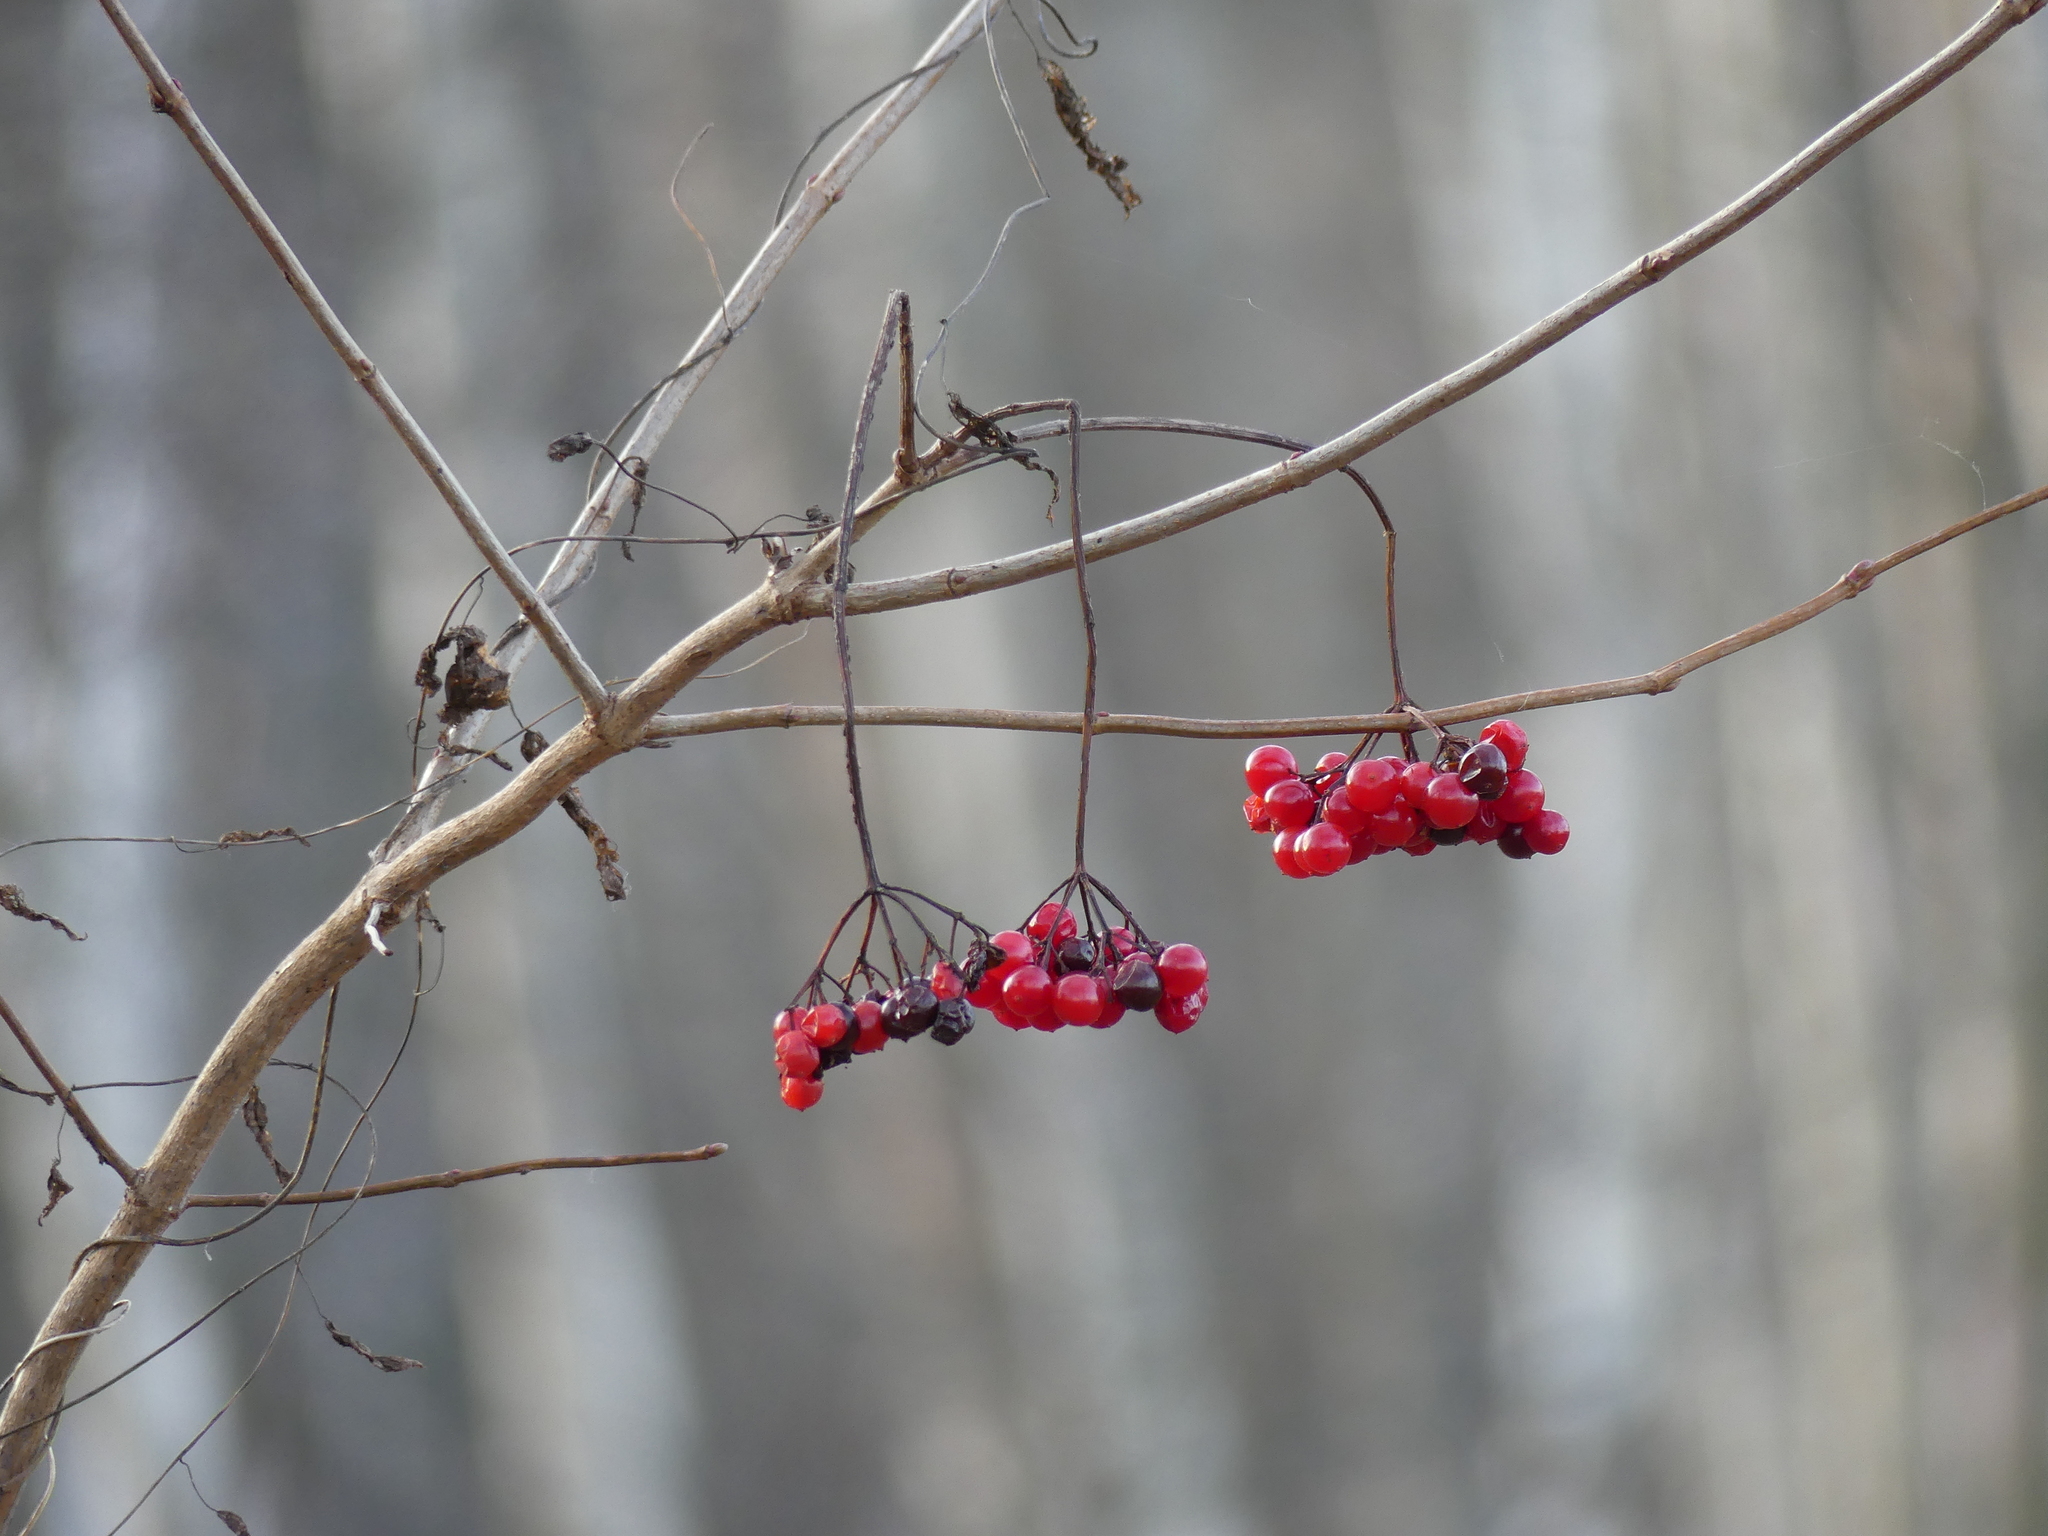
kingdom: Plantae
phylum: Tracheophyta
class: Magnoliopsida
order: Dipsacales
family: Viburnaceae
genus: Viburnum
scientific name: Viburnum opulus
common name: Guelder-rose
